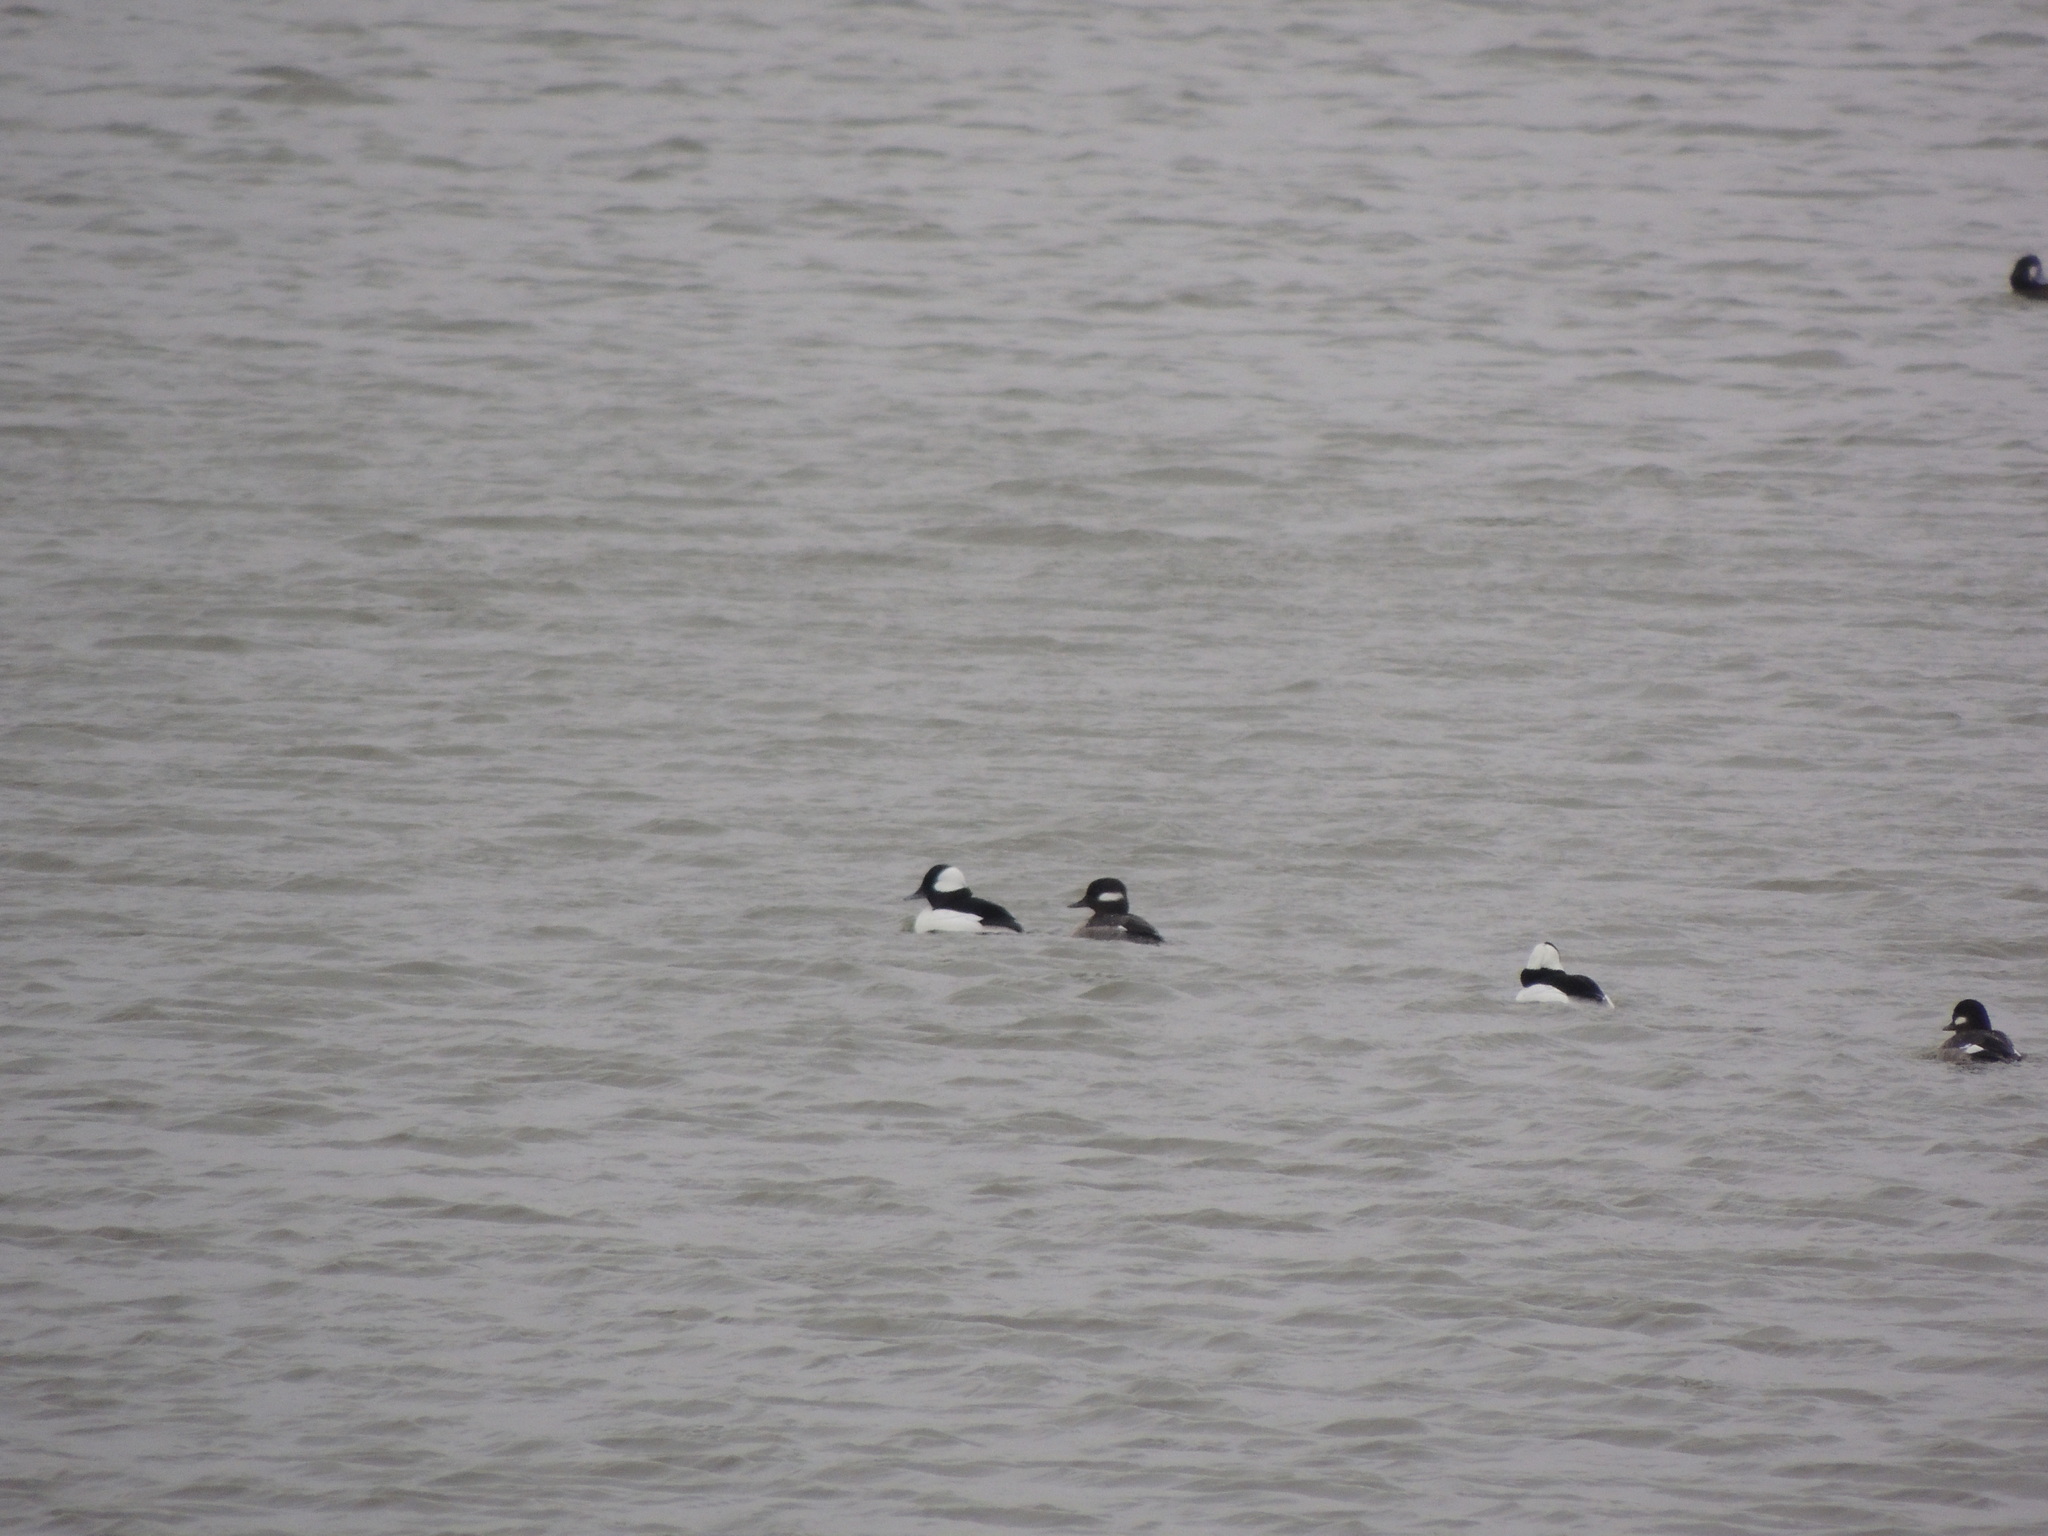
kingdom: Animalia
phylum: Chordata
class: Aves
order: Anseriformes
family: Anatidae
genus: Bucephala
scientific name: Bucephala albeola
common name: Bufflehead
